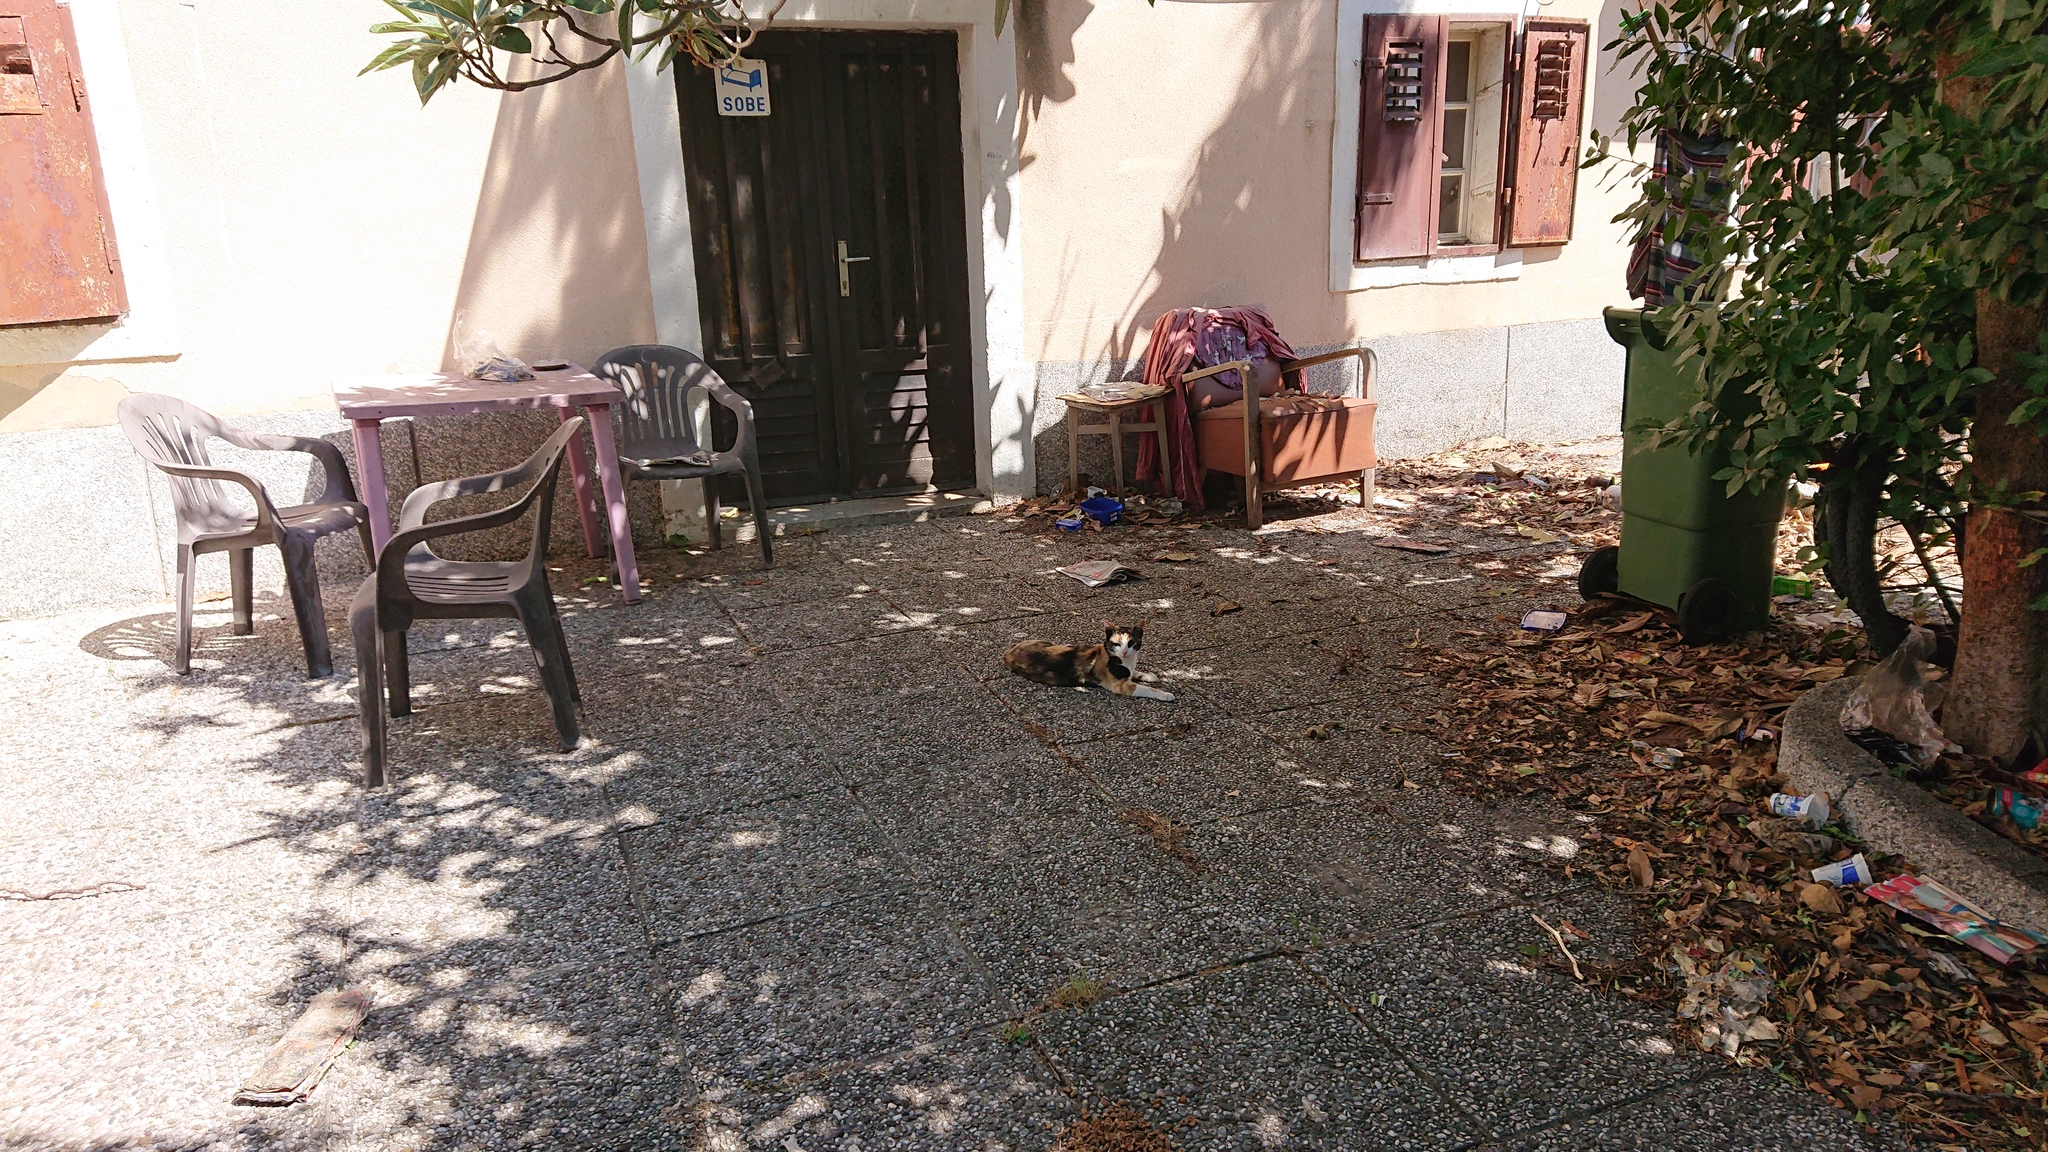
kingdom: Animalia
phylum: Chordata
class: Mammalia
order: Carnivora
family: Felidae
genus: Felis
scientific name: Felis catus
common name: Domestic cat
